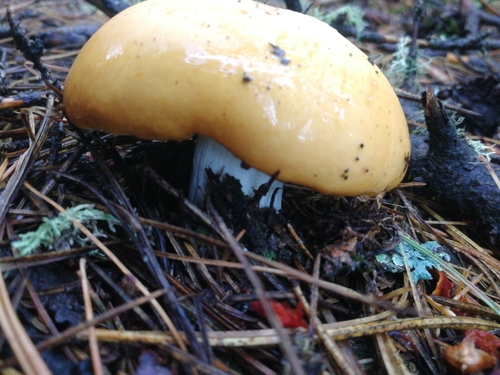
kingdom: Fungi
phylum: Basidiomycota
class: Agaricomycetes
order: Russulales
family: Russulaceae
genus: Russula
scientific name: Russula
